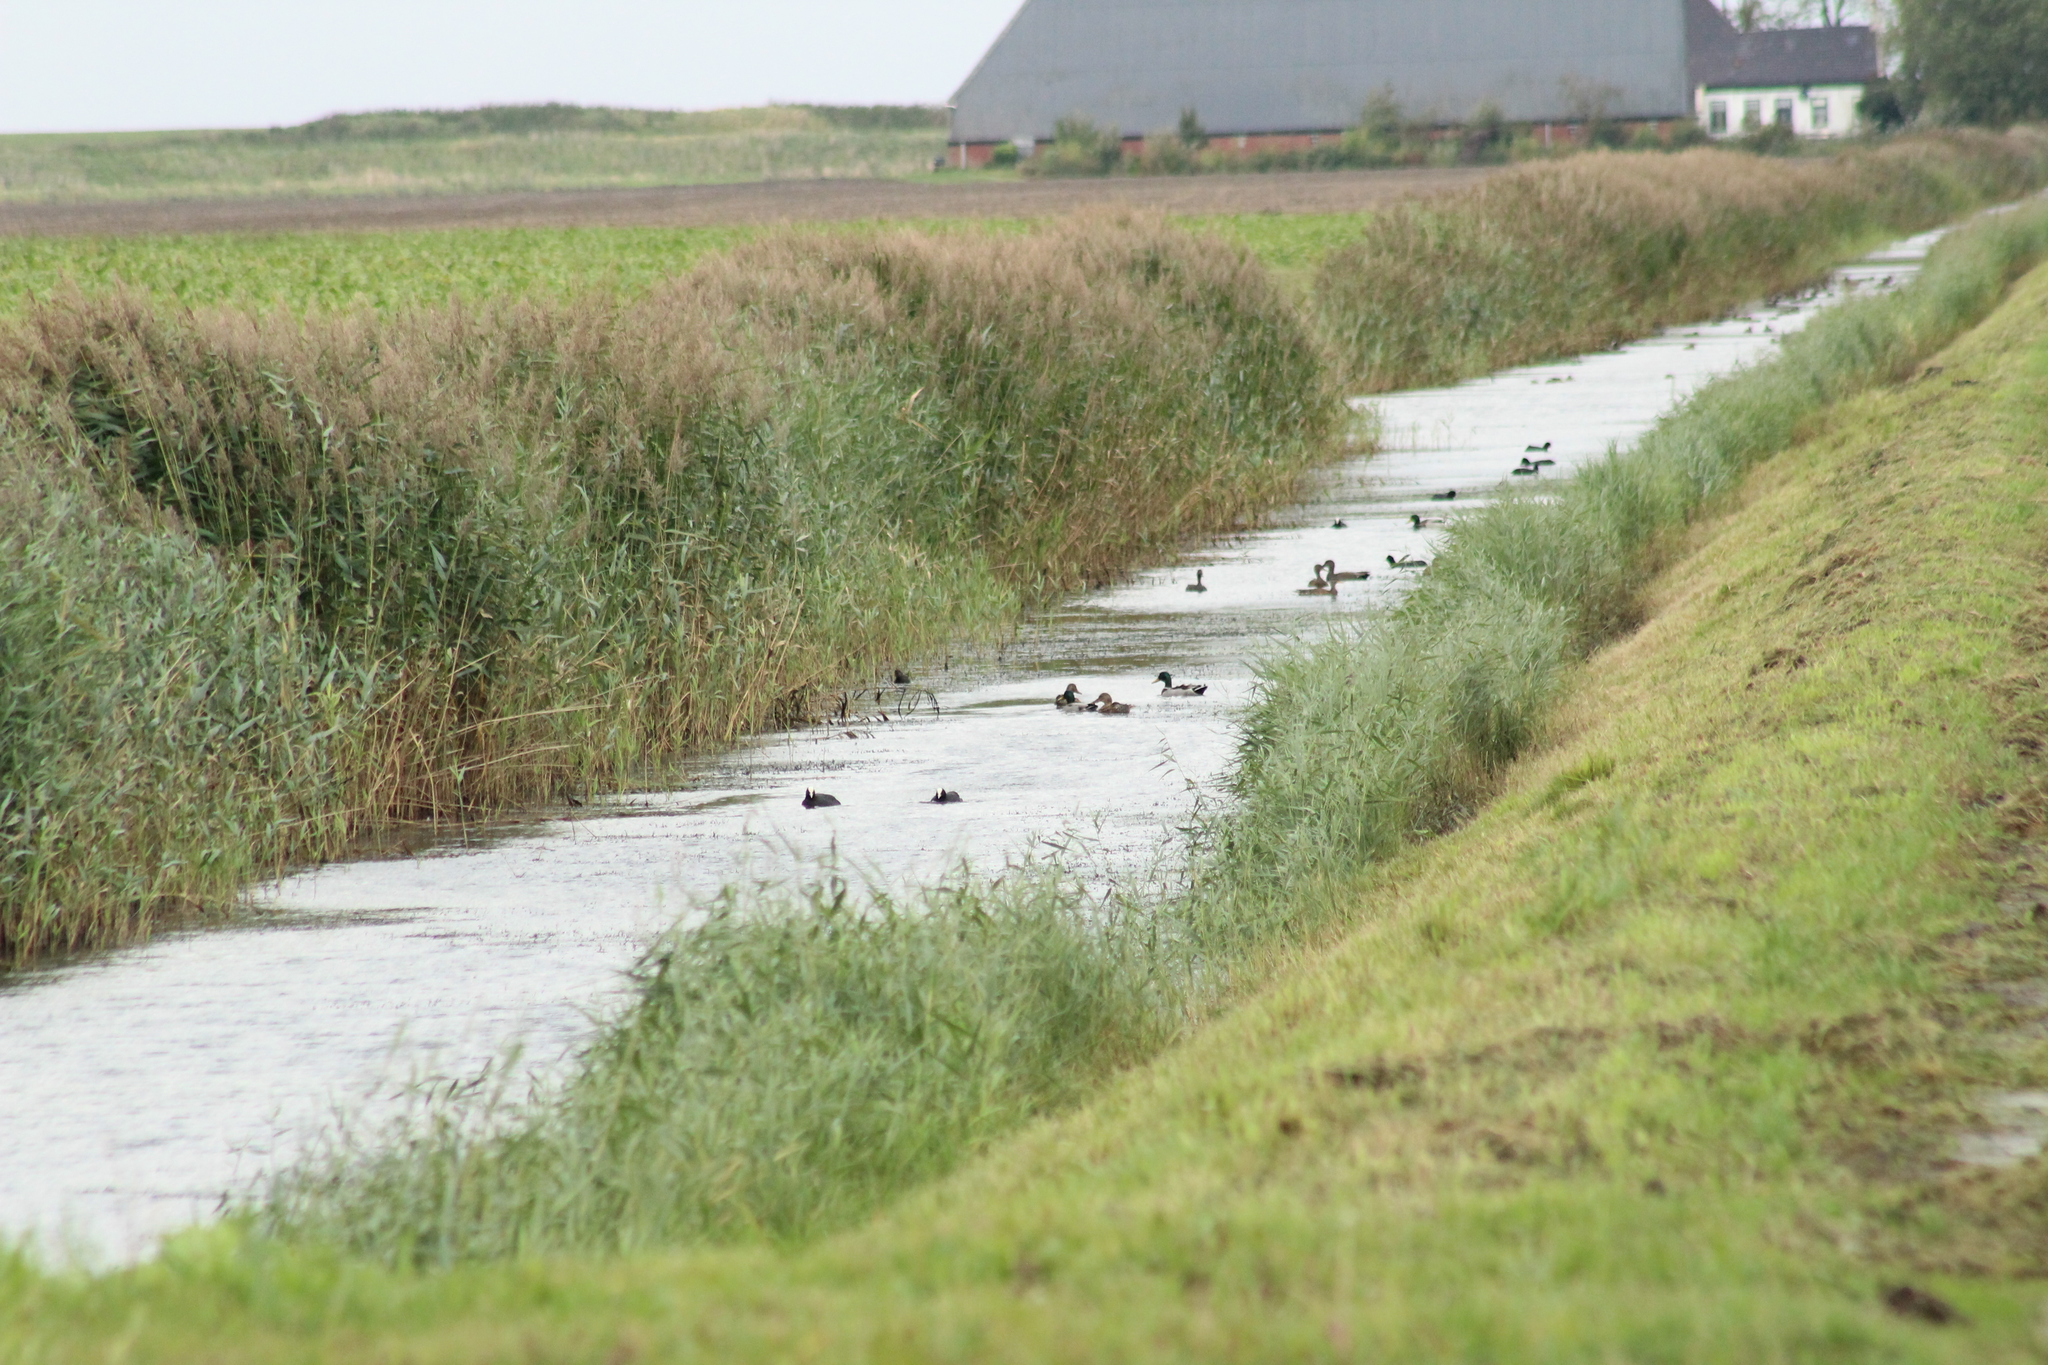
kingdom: Animalia
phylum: Chordata
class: Aves
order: Anseriformes
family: Anatidae
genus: Anas
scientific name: Anas platyrhynchos
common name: Mallard
